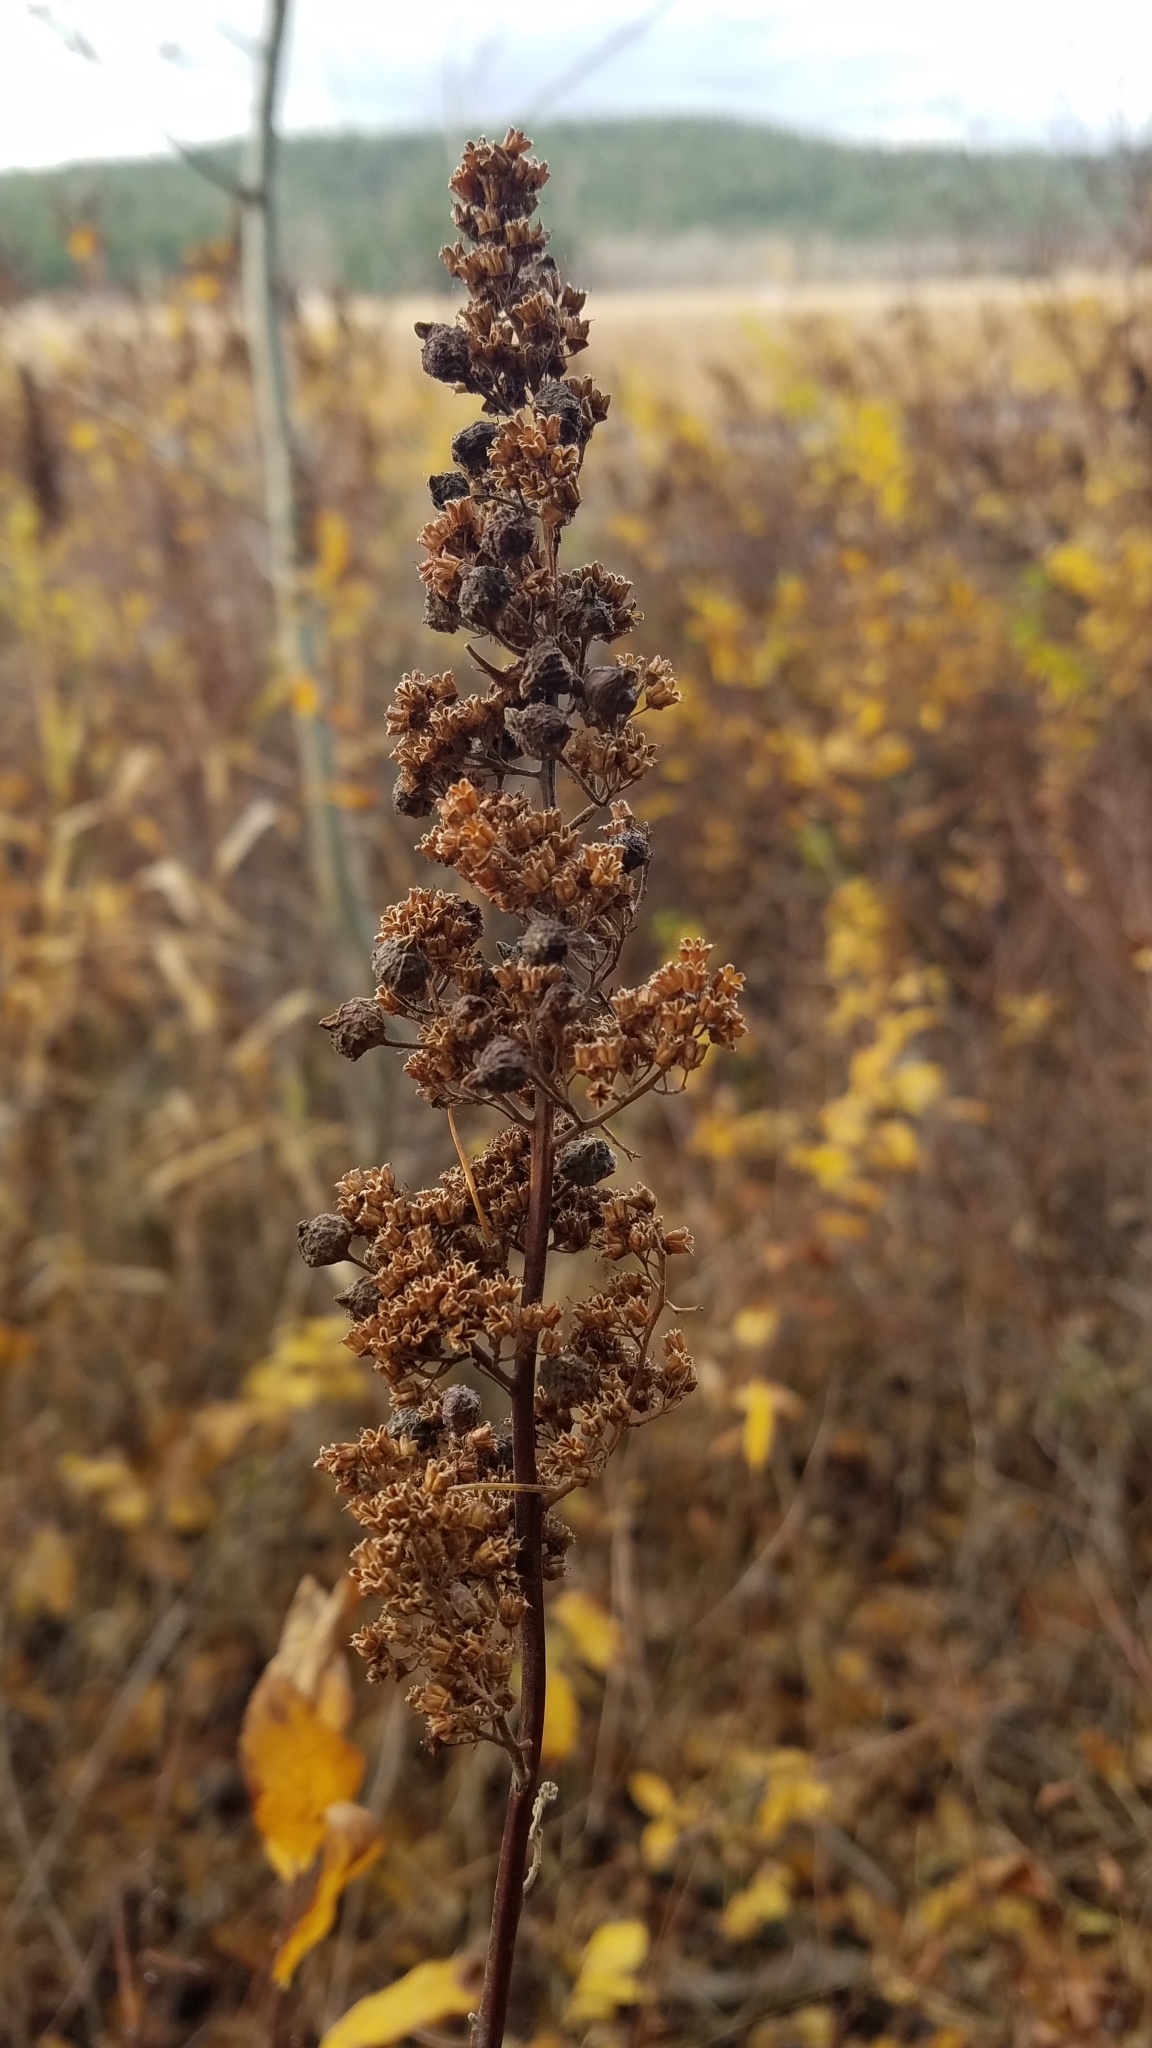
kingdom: Plantae
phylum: Tracheophyta
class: Magnoliopsida
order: Rosales
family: Rosaceae
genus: Spiraea
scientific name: Spiraea douglasii
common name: Steeplebush
